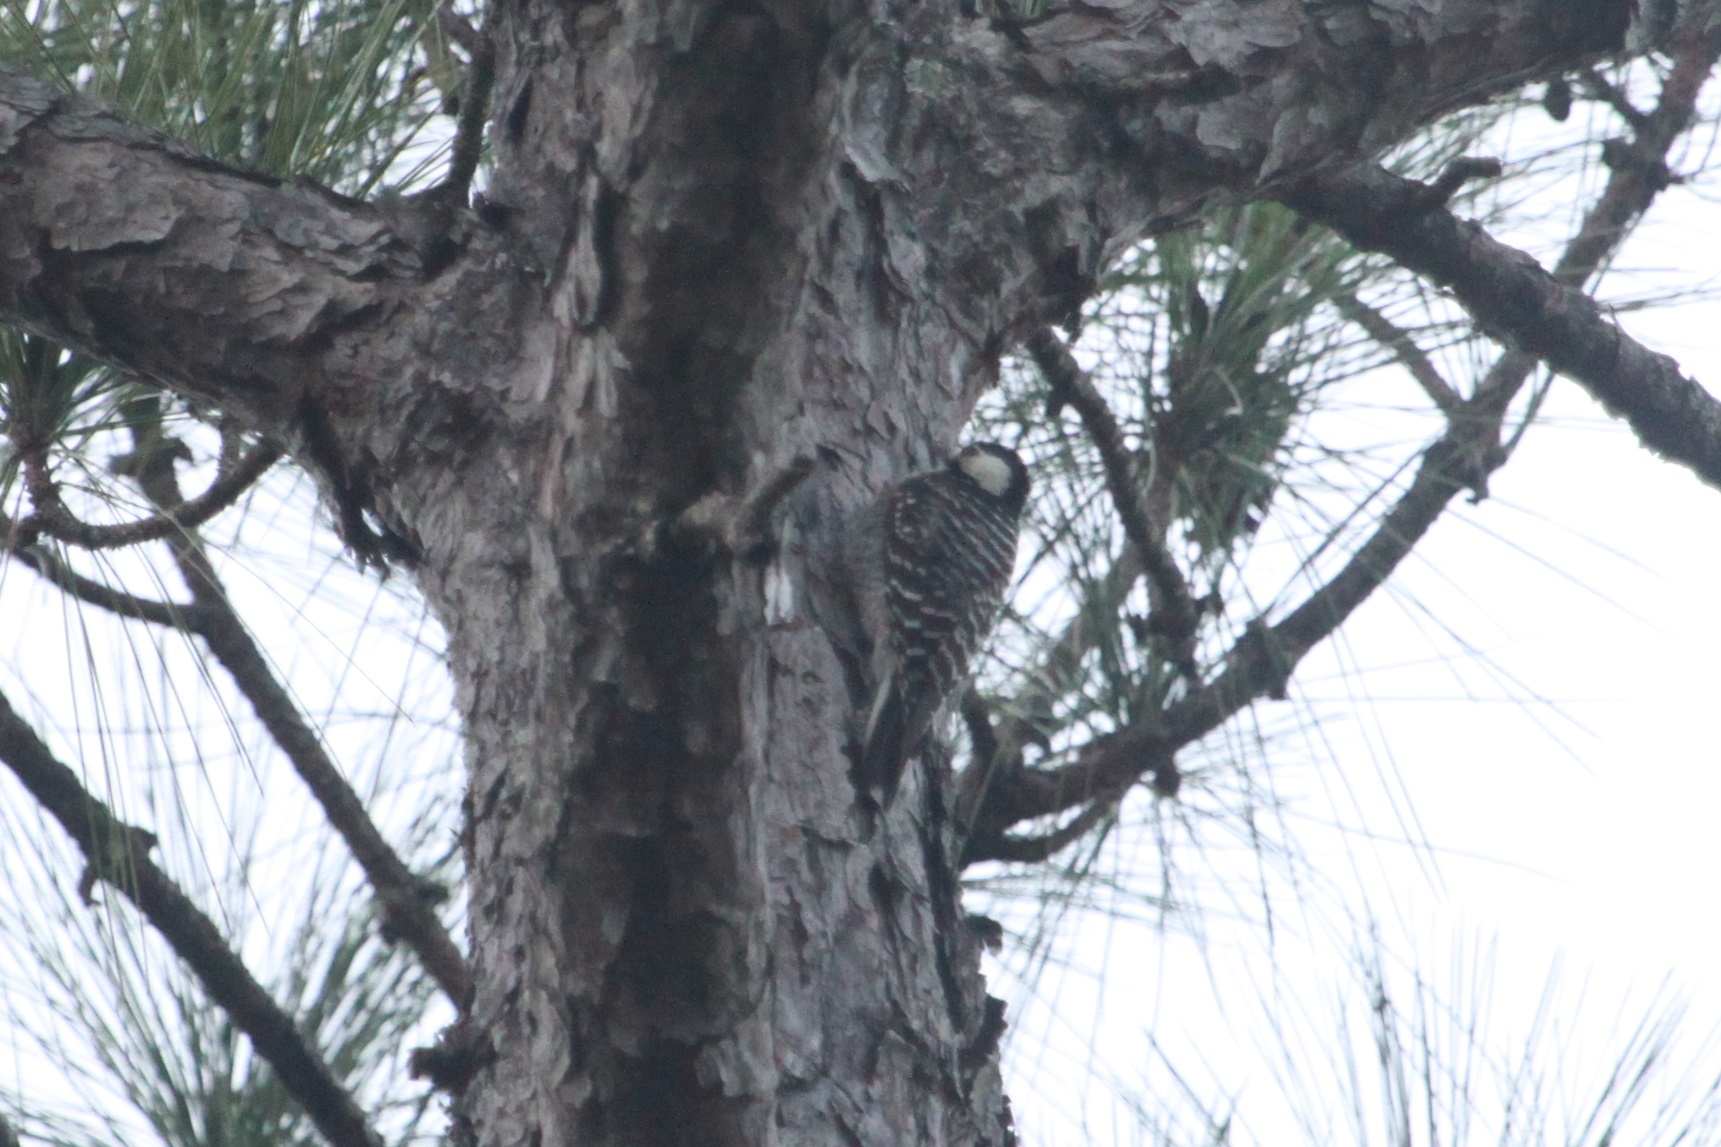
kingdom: Animalia
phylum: Chordata
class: Aves
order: Piciformes
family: Picidae
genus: Leuconotopicus
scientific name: Leuconotopicus borealis
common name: Red-cockaded woodpecker
